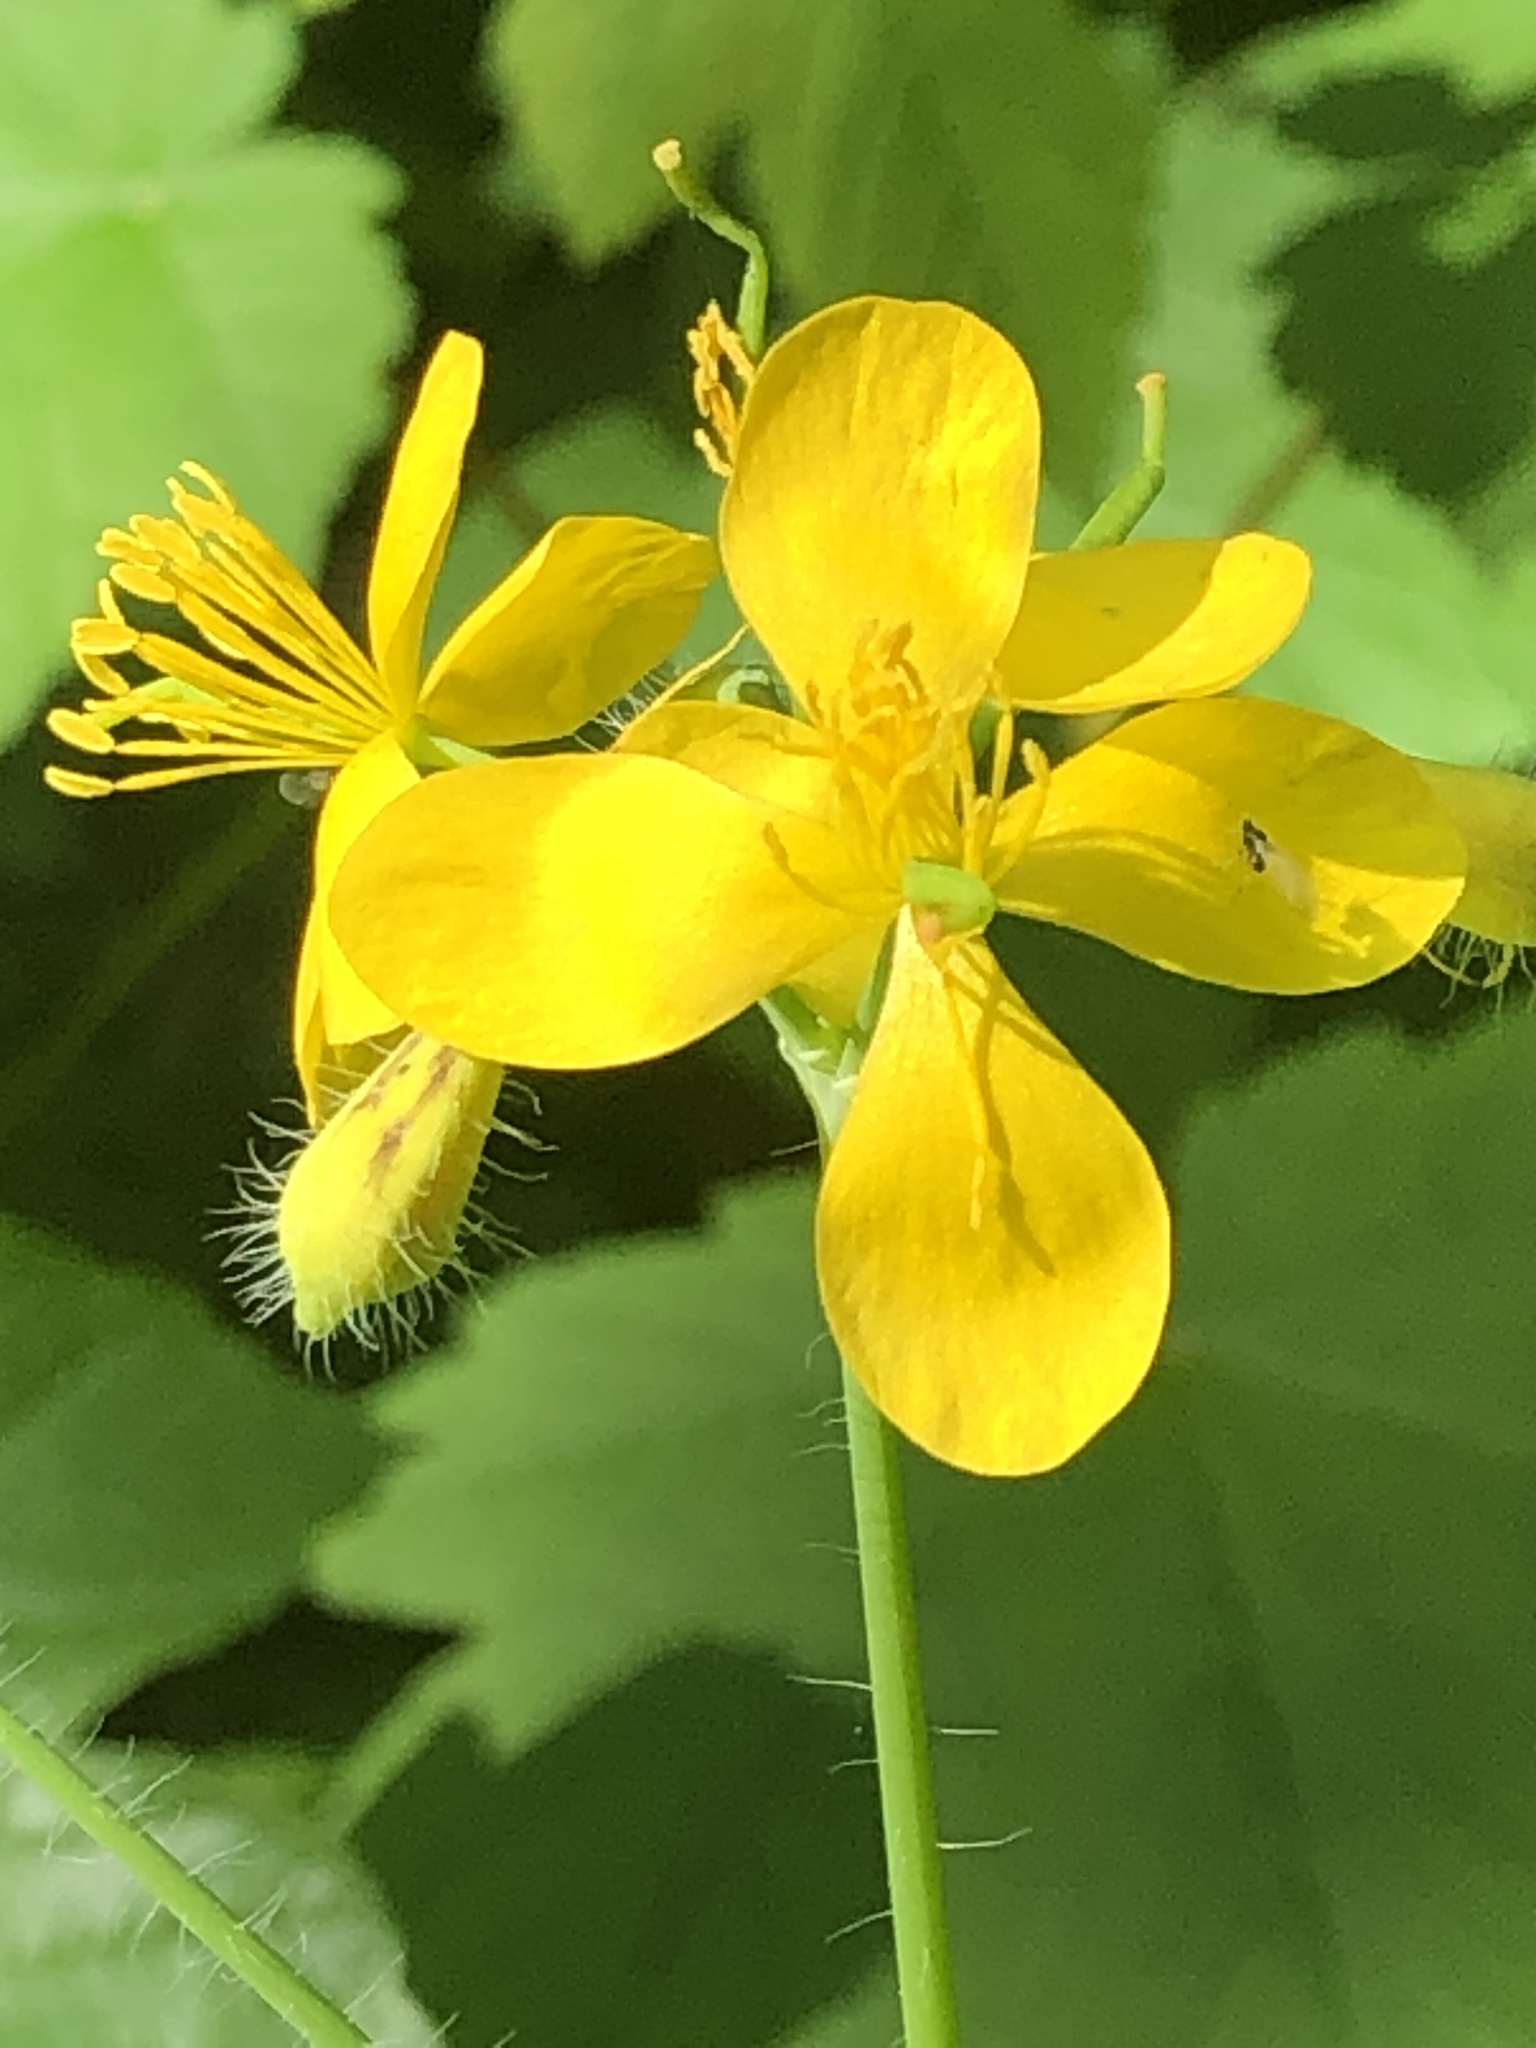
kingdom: Plantae
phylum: Tracheophyta
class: Magnoliopsida
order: Ranunculales
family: Papaveraceae
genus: Chelidonium
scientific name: Chelidonium majus
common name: Greater celandine
